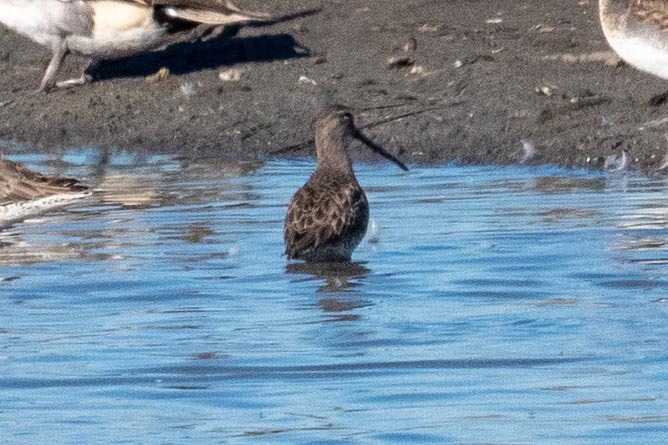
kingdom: Animalia
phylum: Chordata
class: Aves
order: Charadriiformes
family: Scolopacidae
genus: Limnodromus
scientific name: Limnodromus scolopaceus
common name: Long-billed dowitcher
